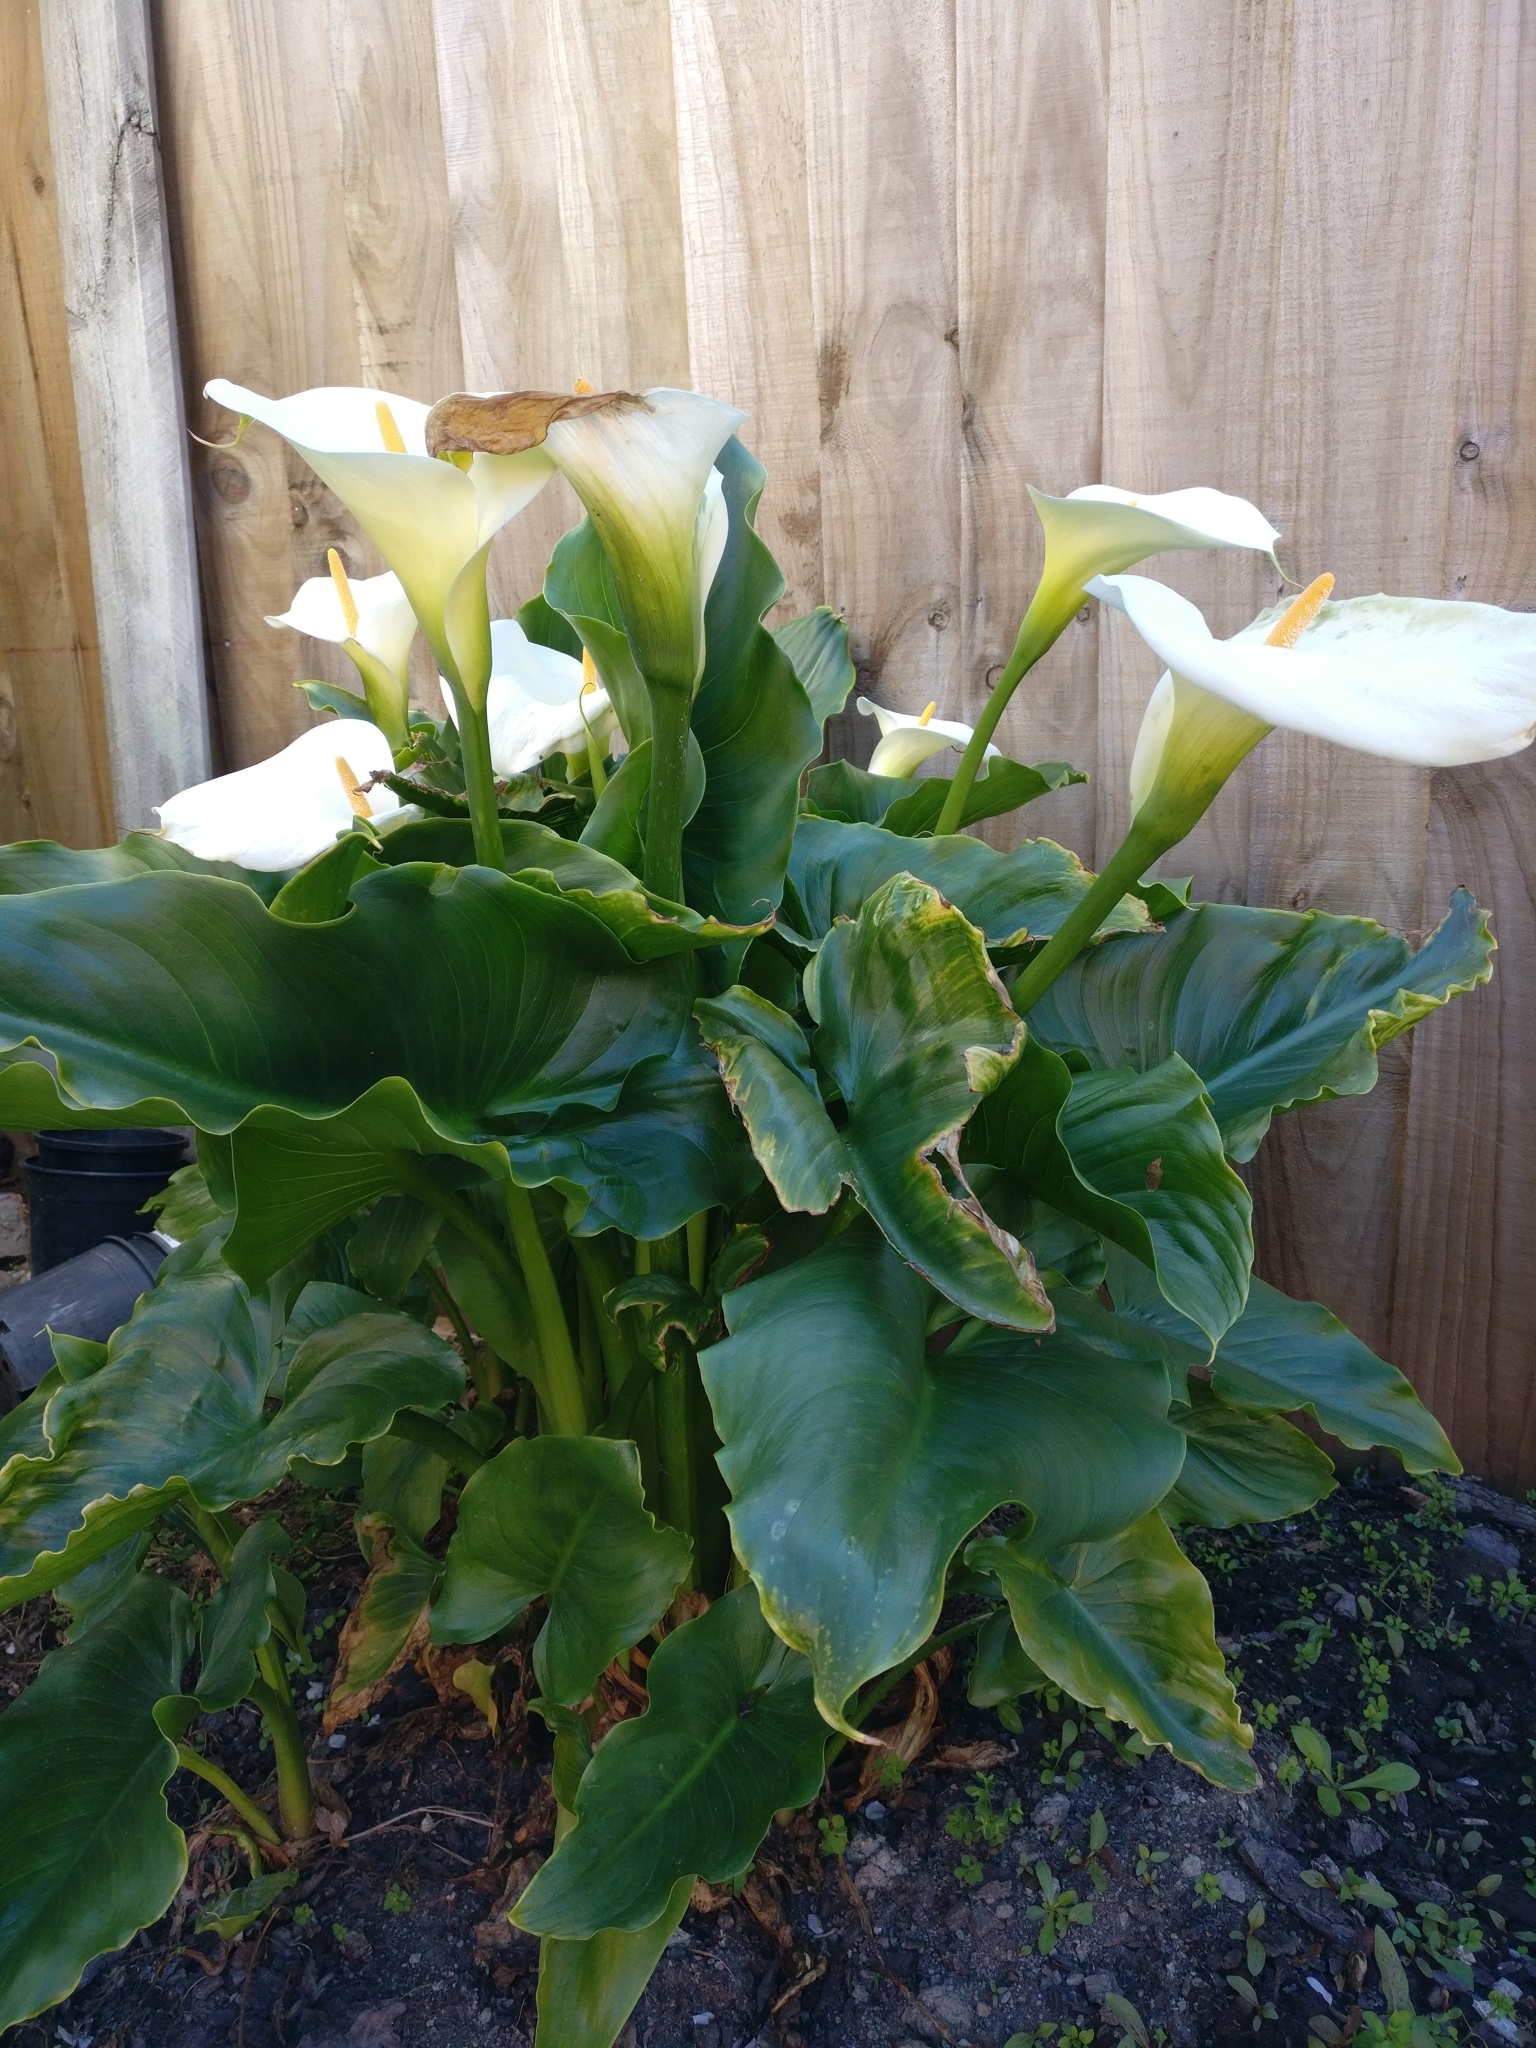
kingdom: Plantae
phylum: Tracheophyta
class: Liliopsida
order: Alismatales
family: Araceae
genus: Zantedeschia
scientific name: Zantedeschia aethiopica
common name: Altar-lily
